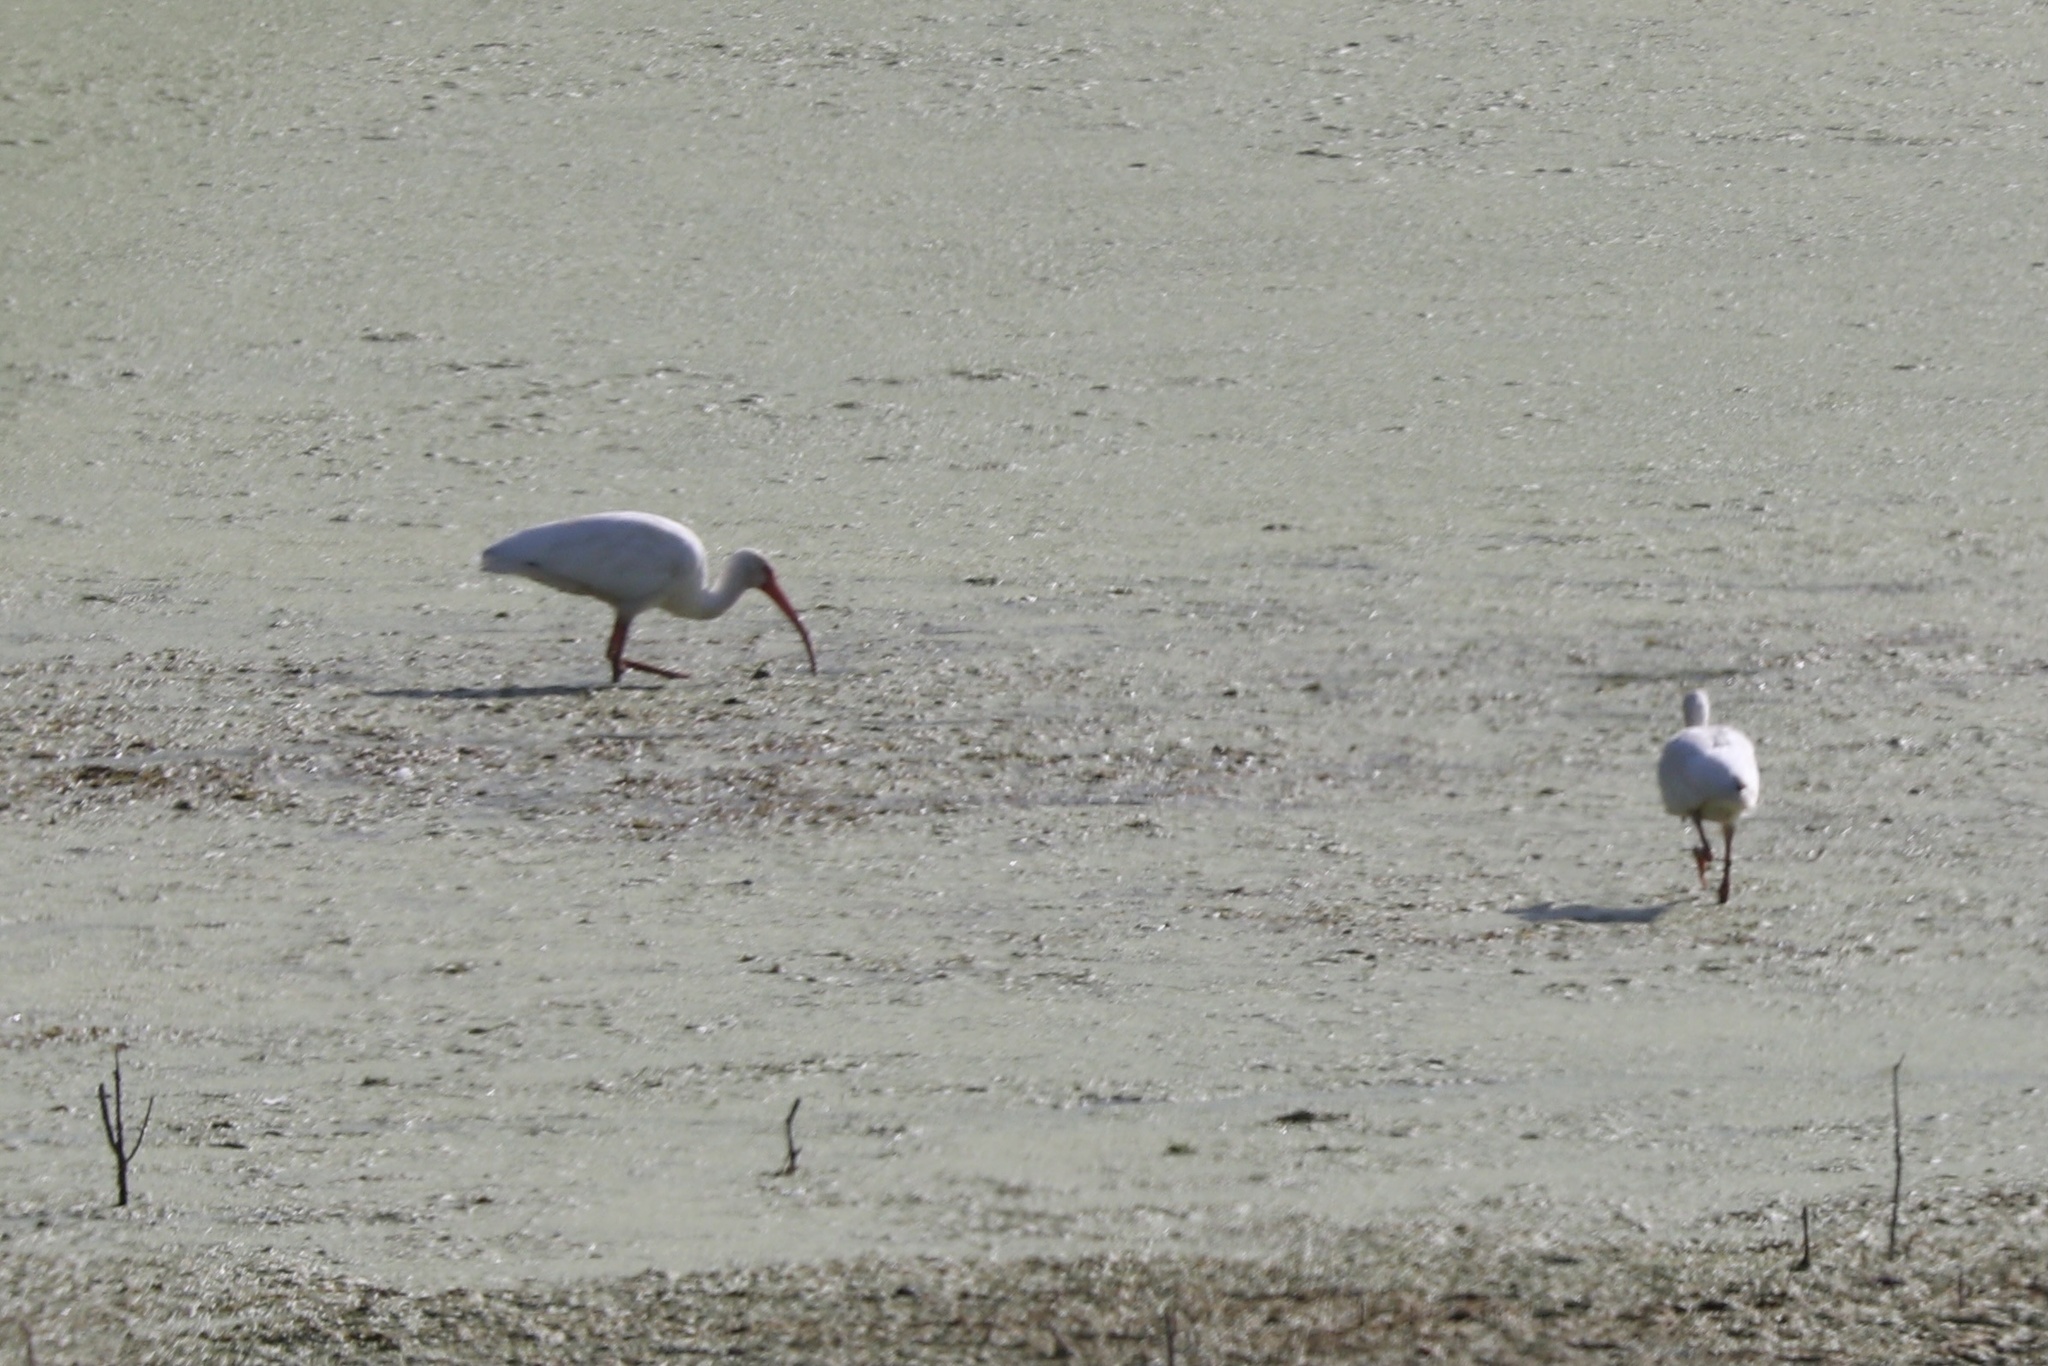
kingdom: Animalia
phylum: Chordata
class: Aves
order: Pelecaniformes
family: Threskiornithidae
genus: Eudocimus
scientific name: Eudocimus albus
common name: White ibis
